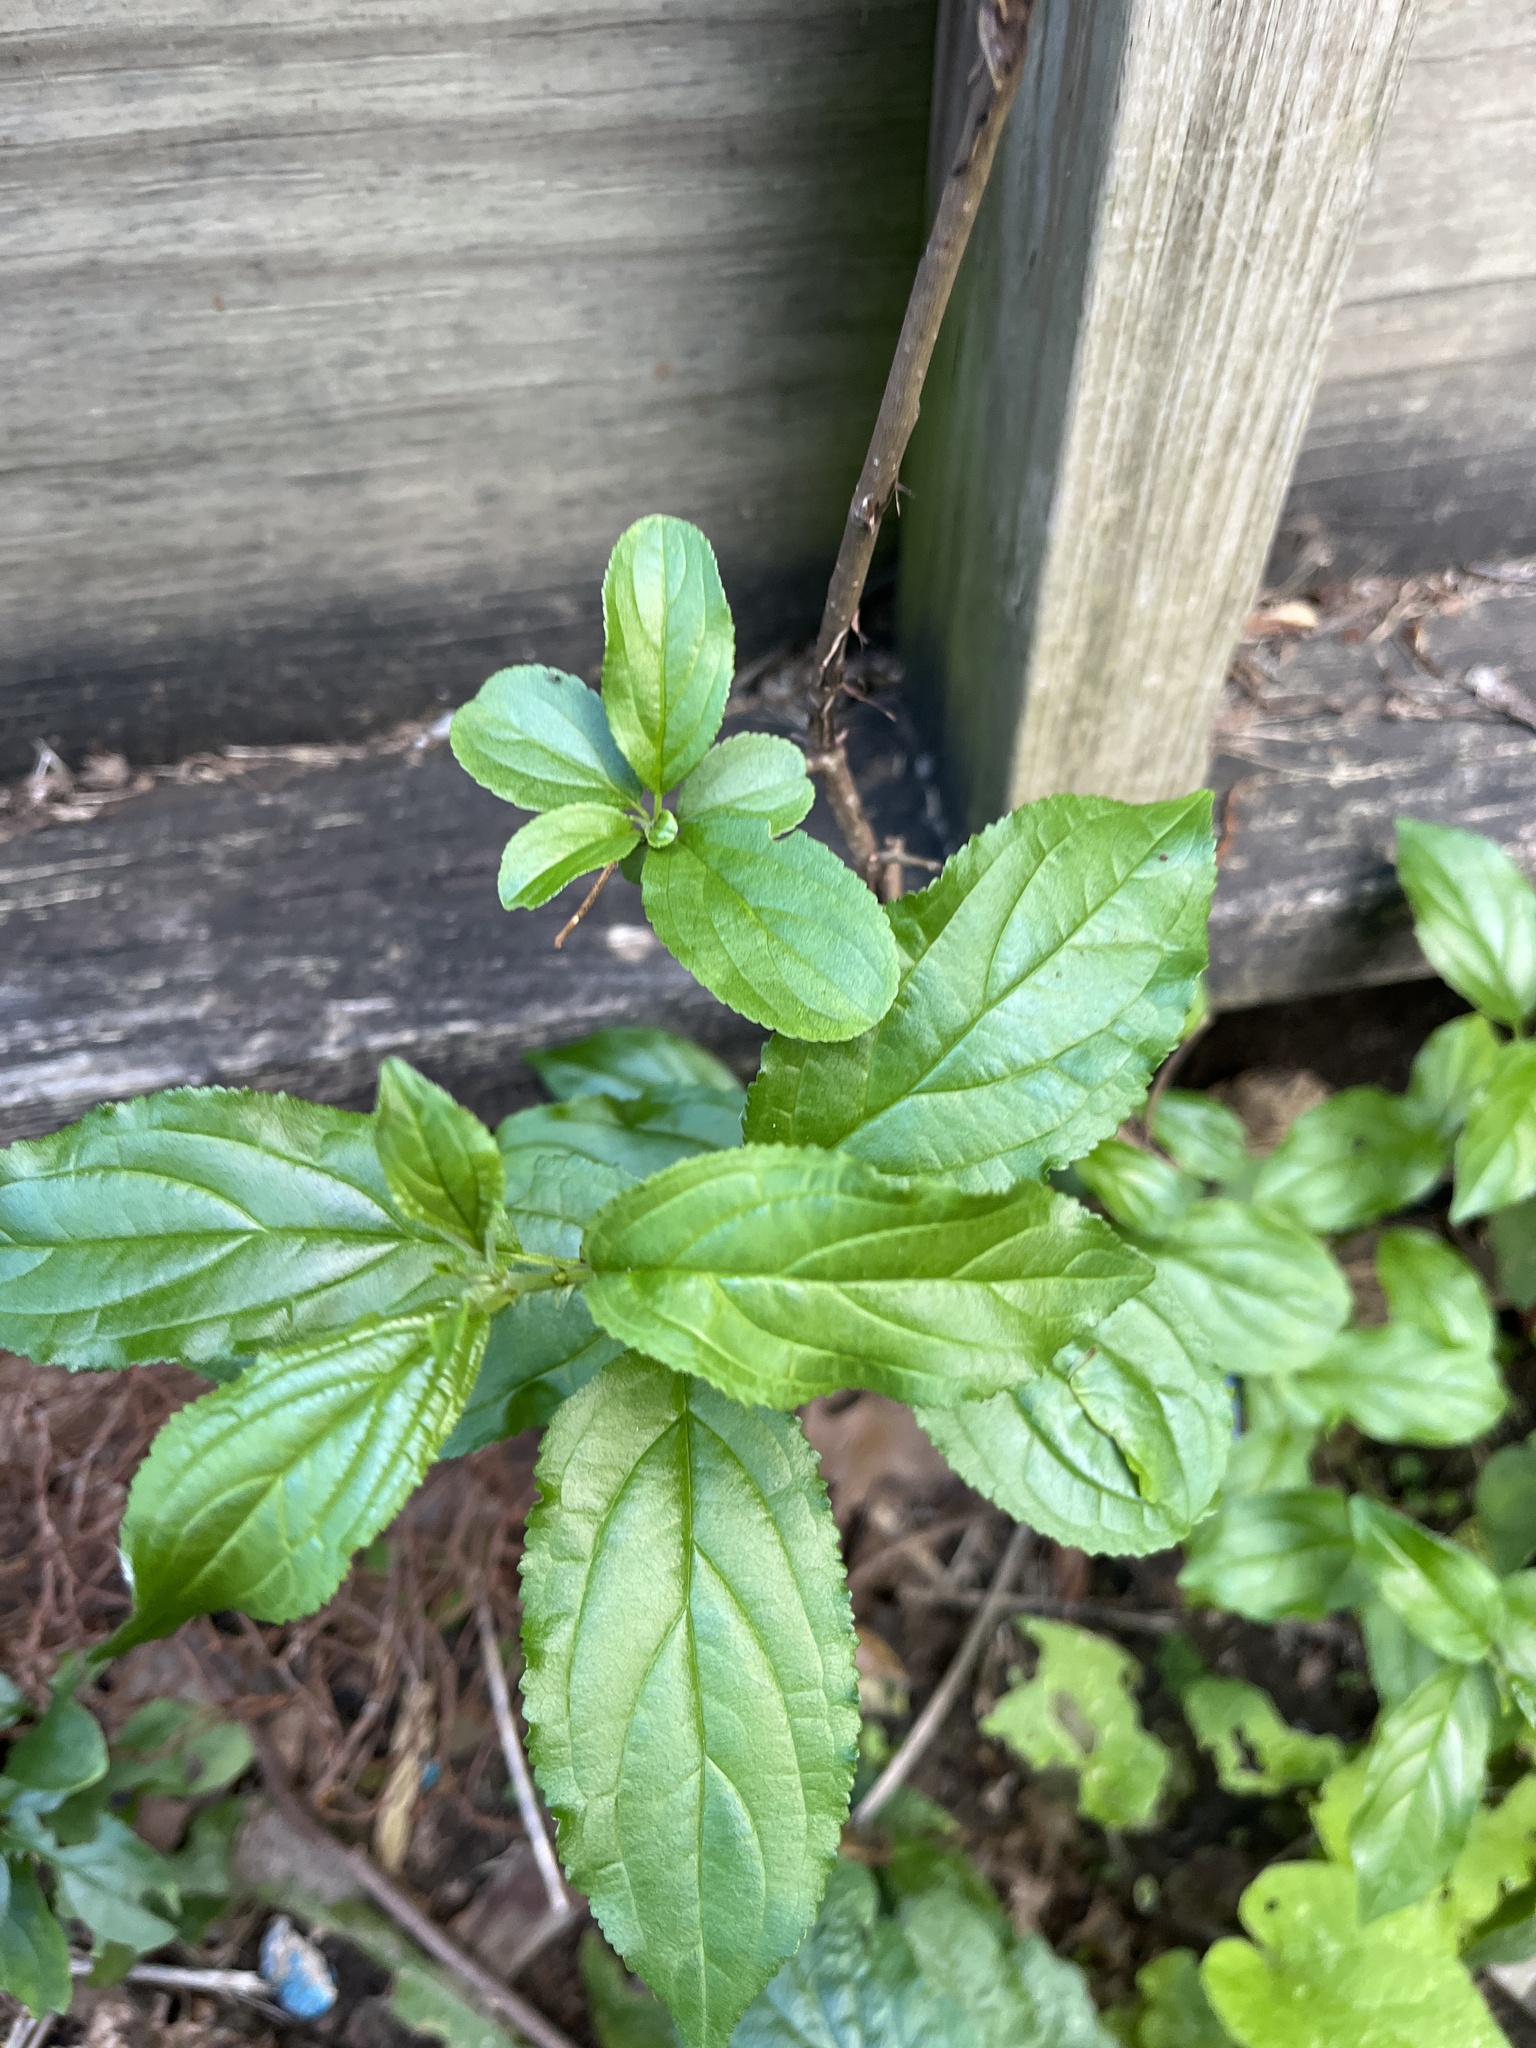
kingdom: Plantae
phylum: Tracheophyta
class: Magnoliopsida
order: Rosales
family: Rhamnaceae
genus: Rhamnus
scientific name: Rhamnus cathartica
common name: Common buckthorn
